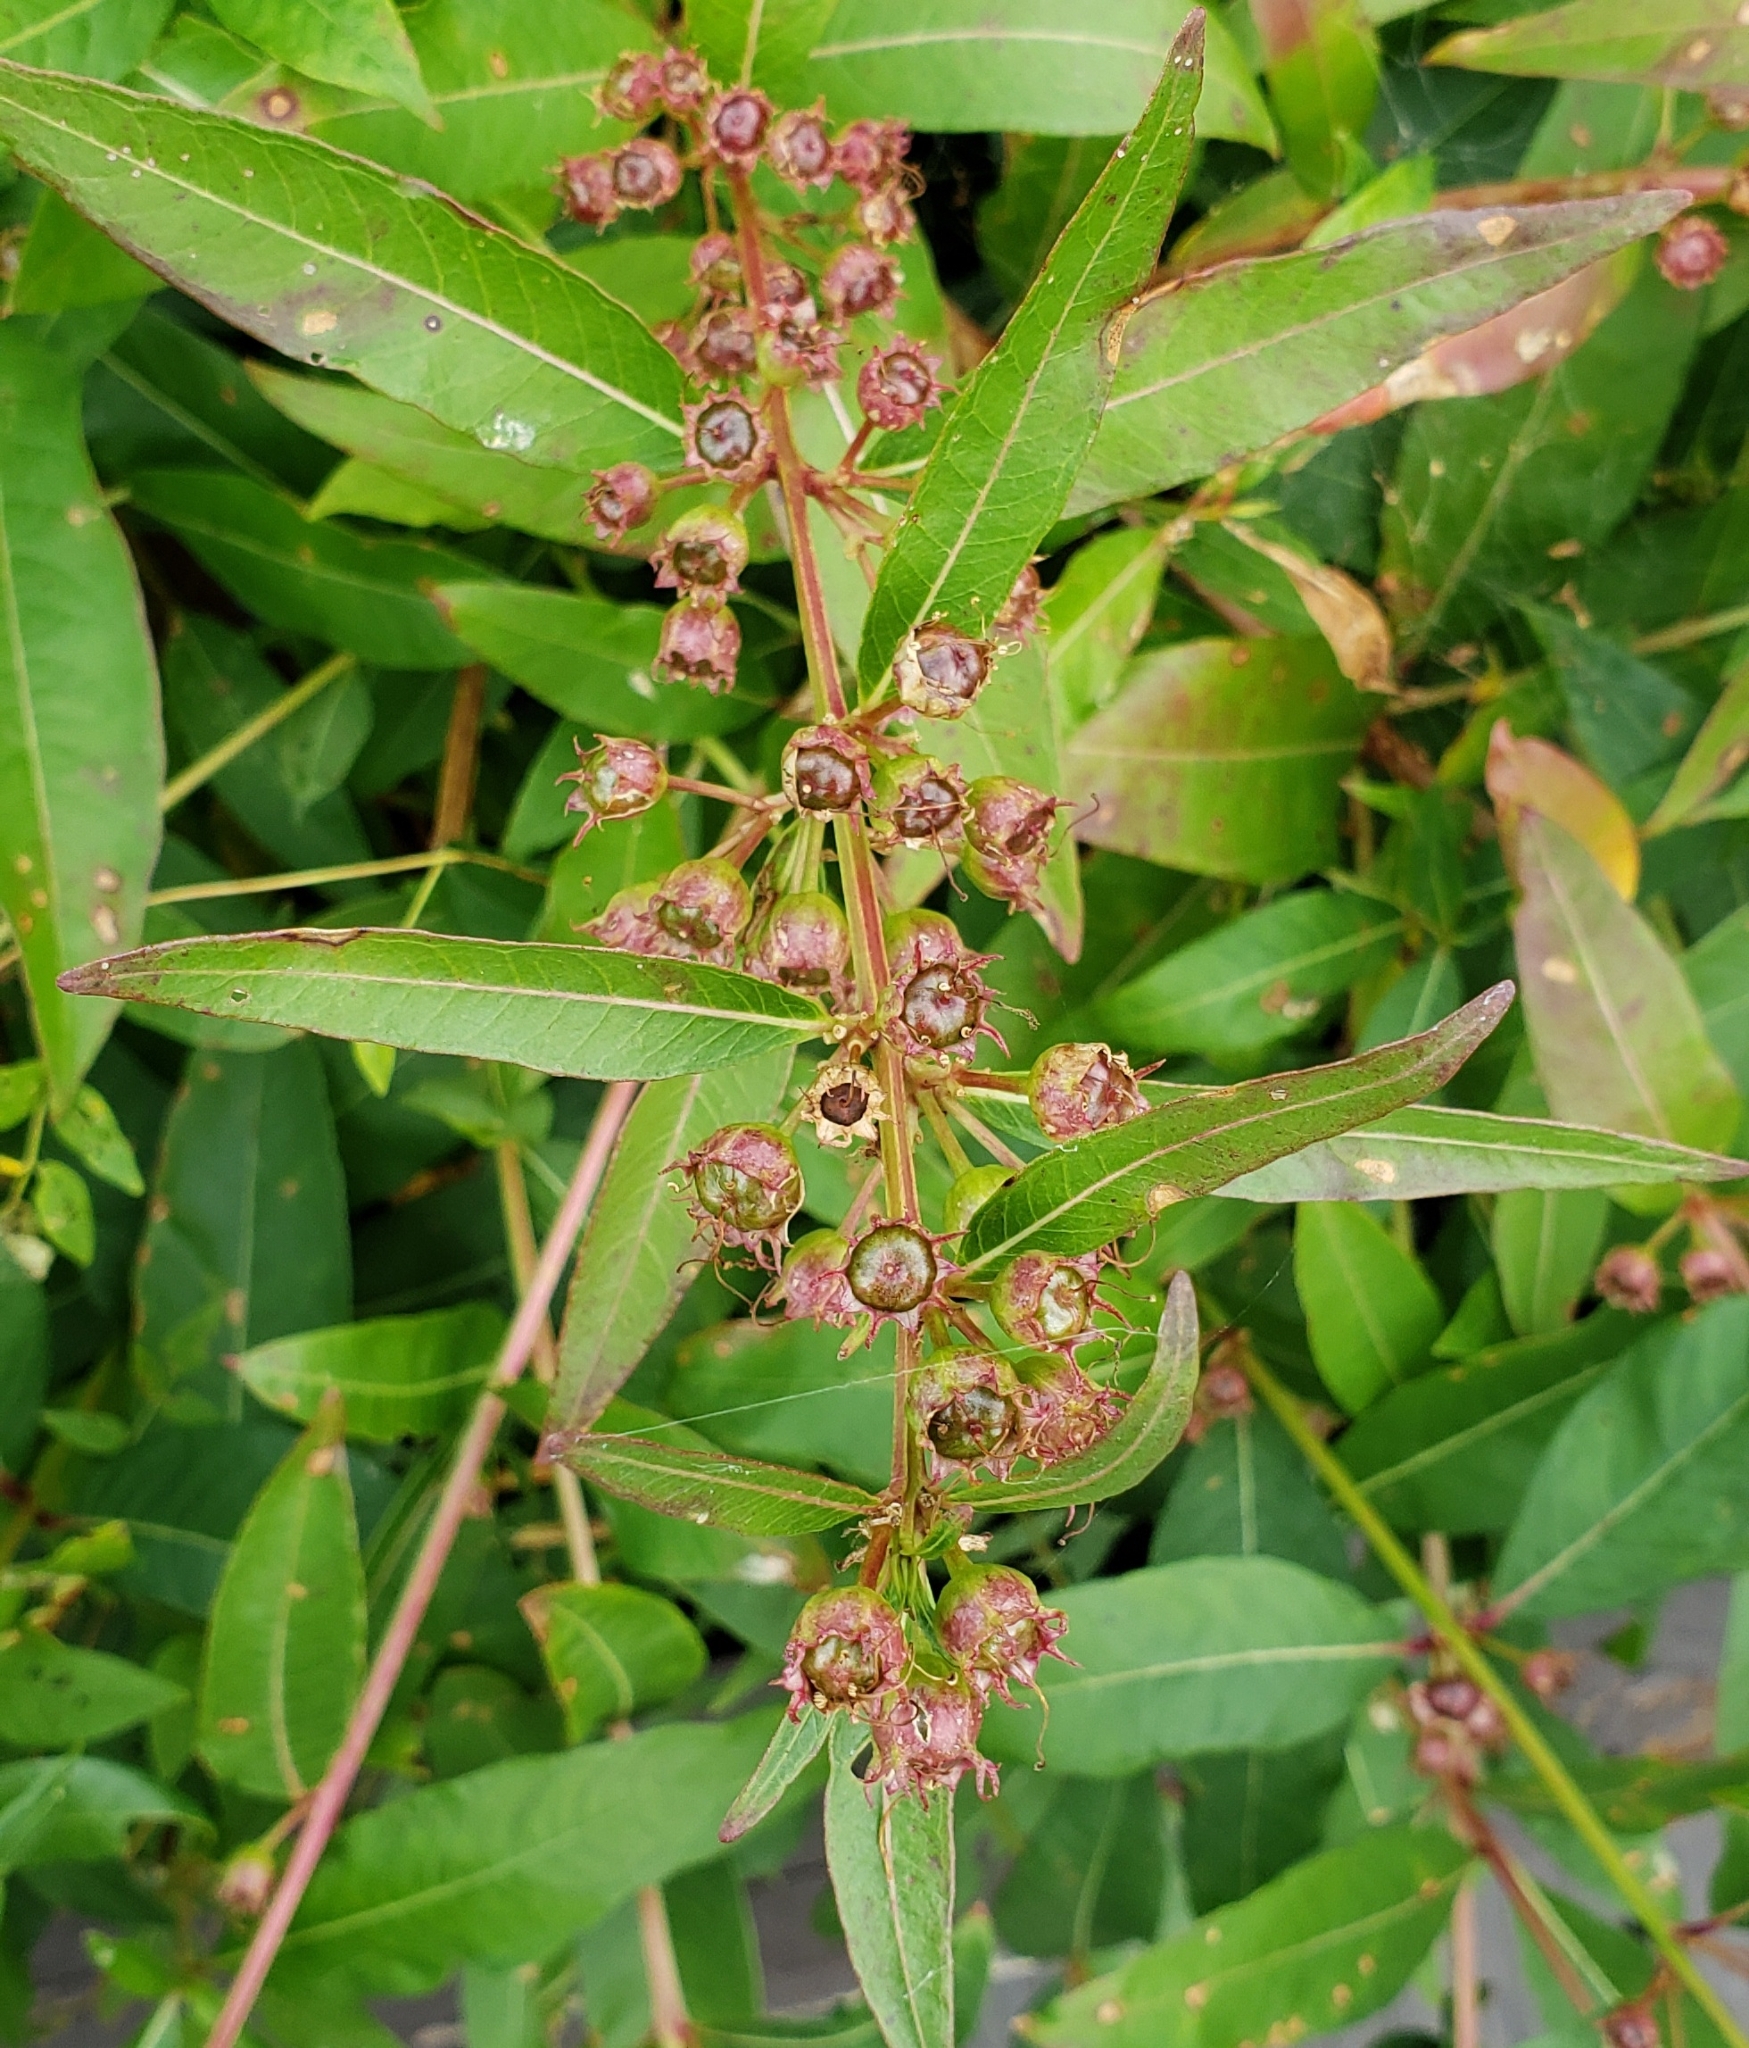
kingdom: Plantae
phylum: Tracheophyta
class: Magnoliopsida
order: Myrtales
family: Lythraceae
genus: Decodon
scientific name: Decodon verticillatus
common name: Hairy swamp loosestrife
